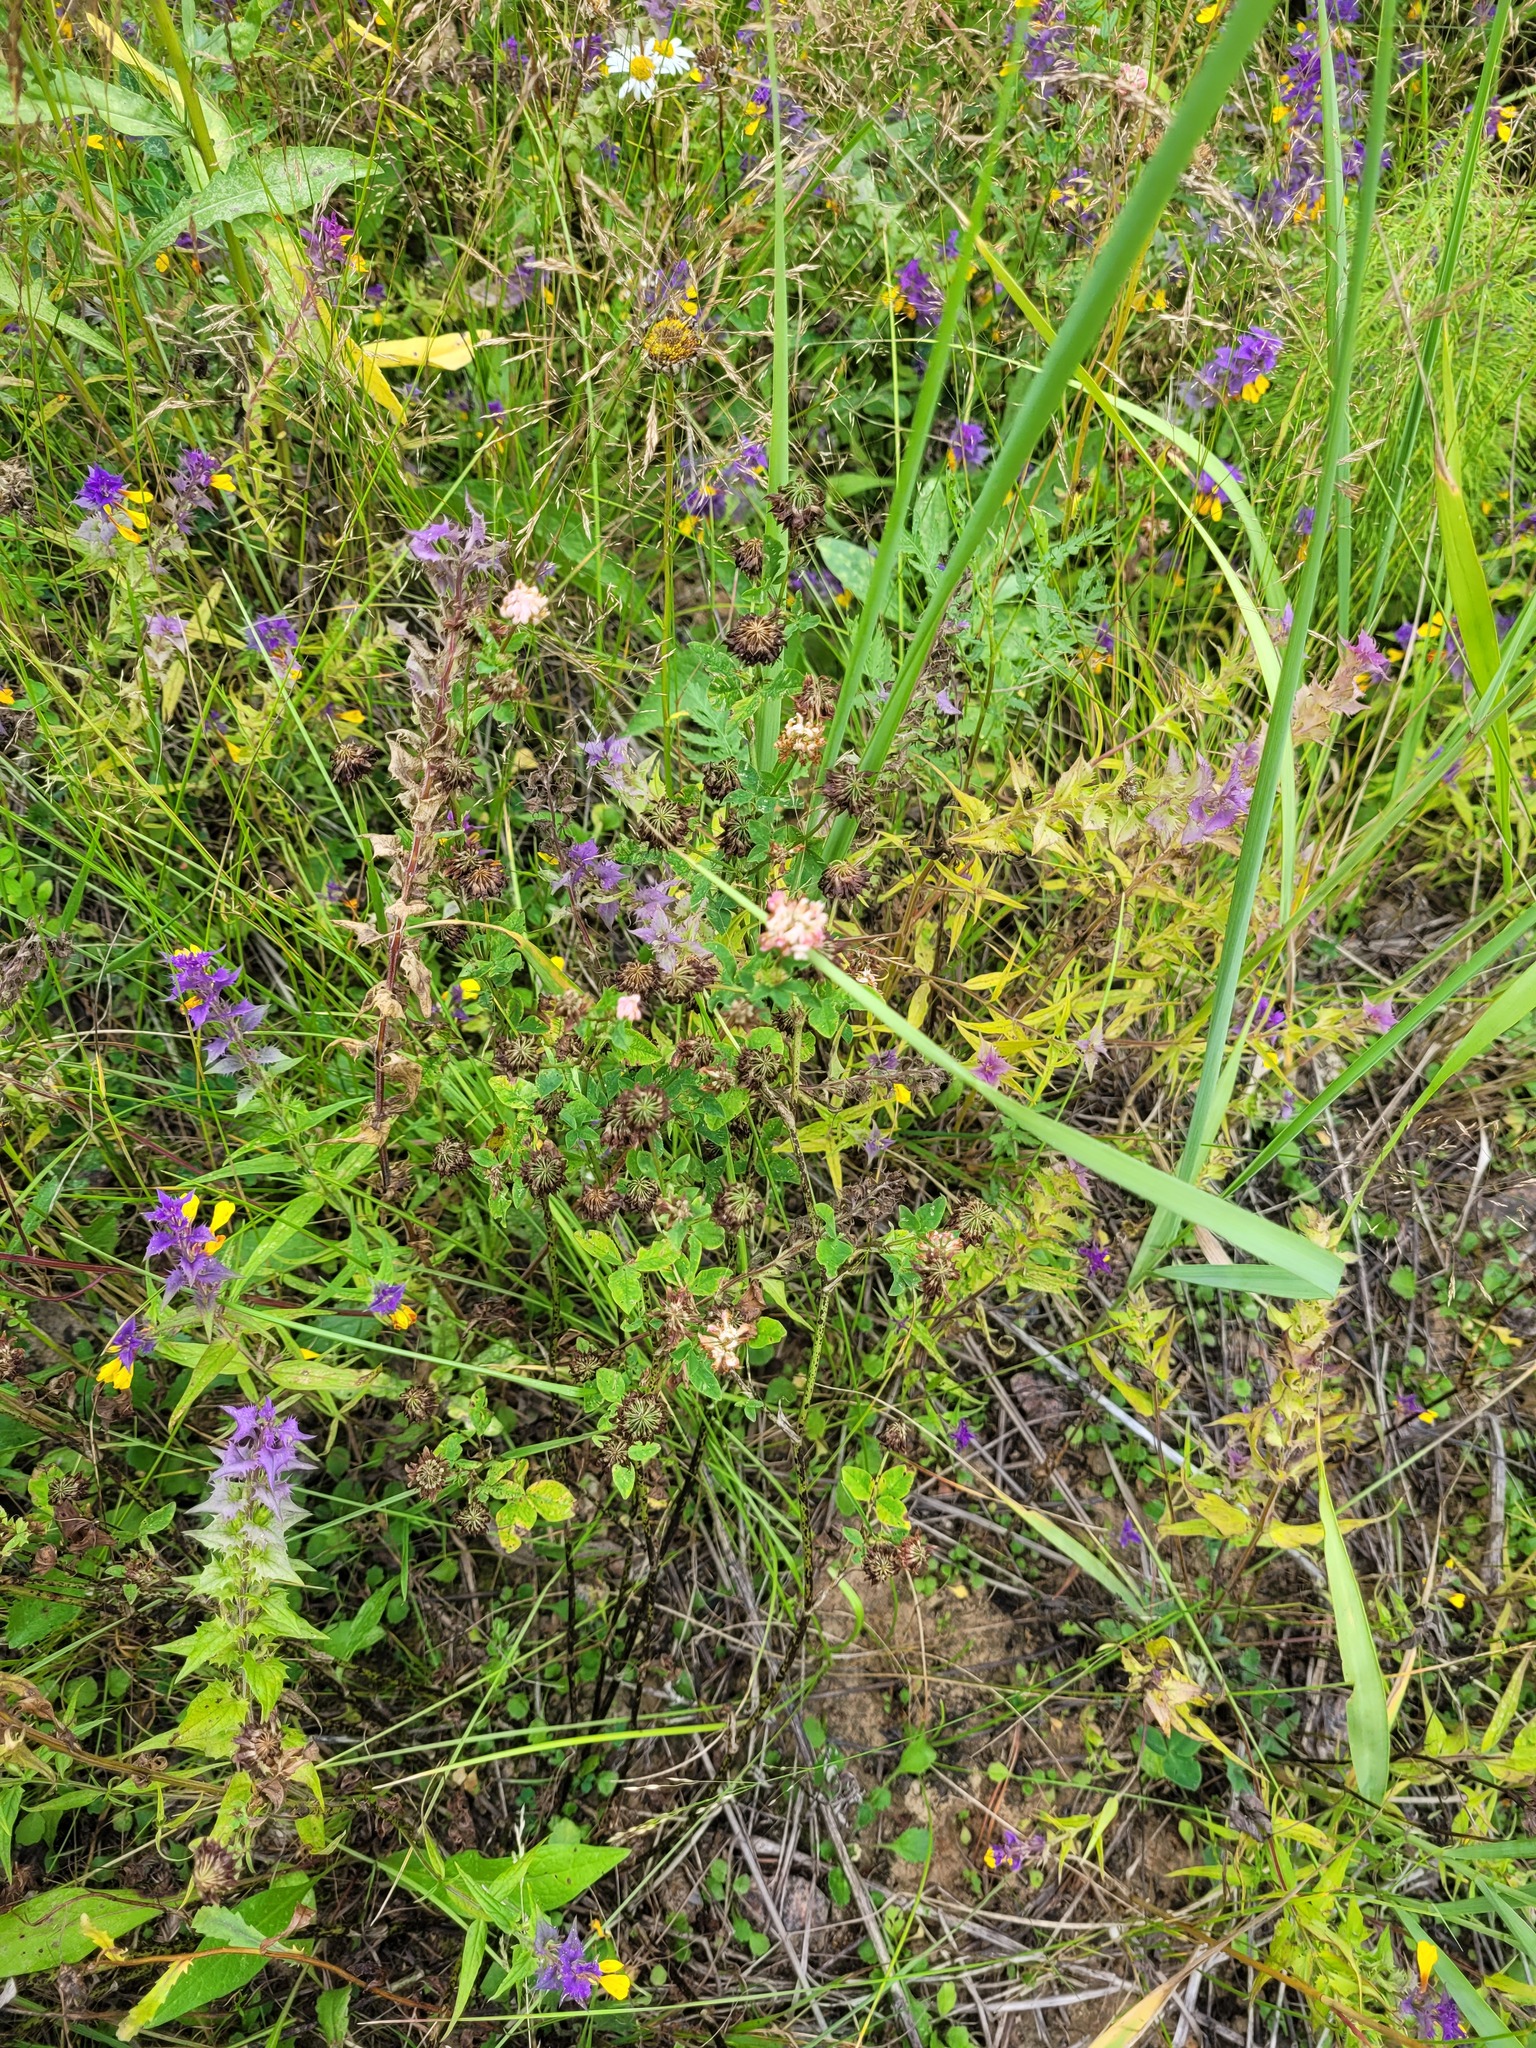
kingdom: Plantae
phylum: Tracheophyta
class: Magnoliopsida
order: Fabales
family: Fabaceae
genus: Trifolium
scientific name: Trifolium hybridum
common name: Alsike clover
